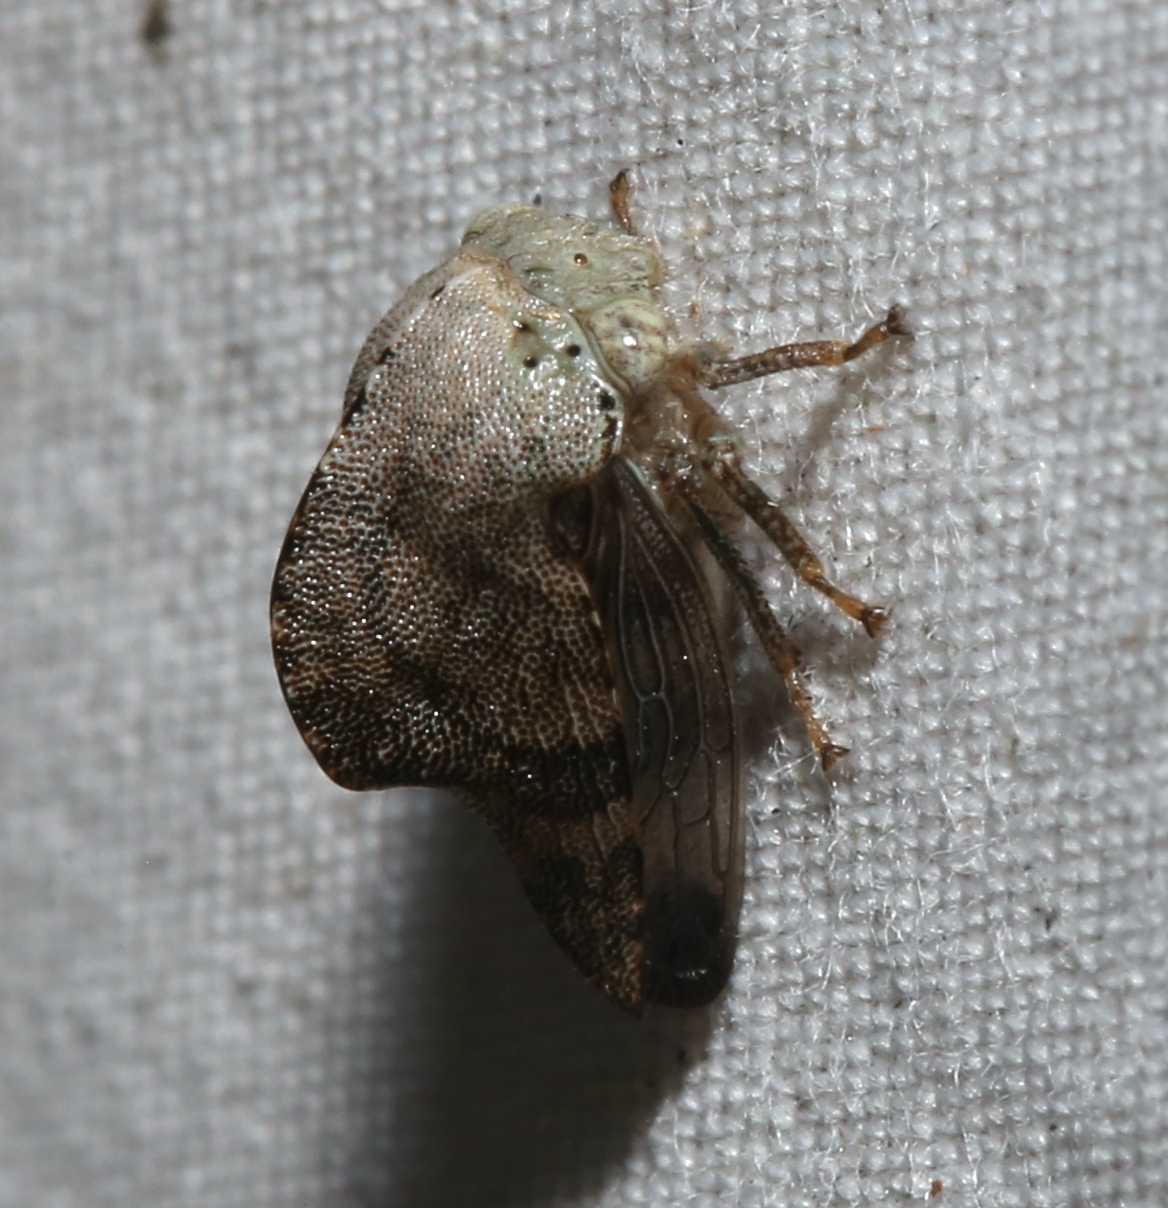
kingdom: Animalia
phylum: Arthropoda
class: Insecta
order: Hemiptera
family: Membracidae
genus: Telamona
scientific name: Telamona reclivata
